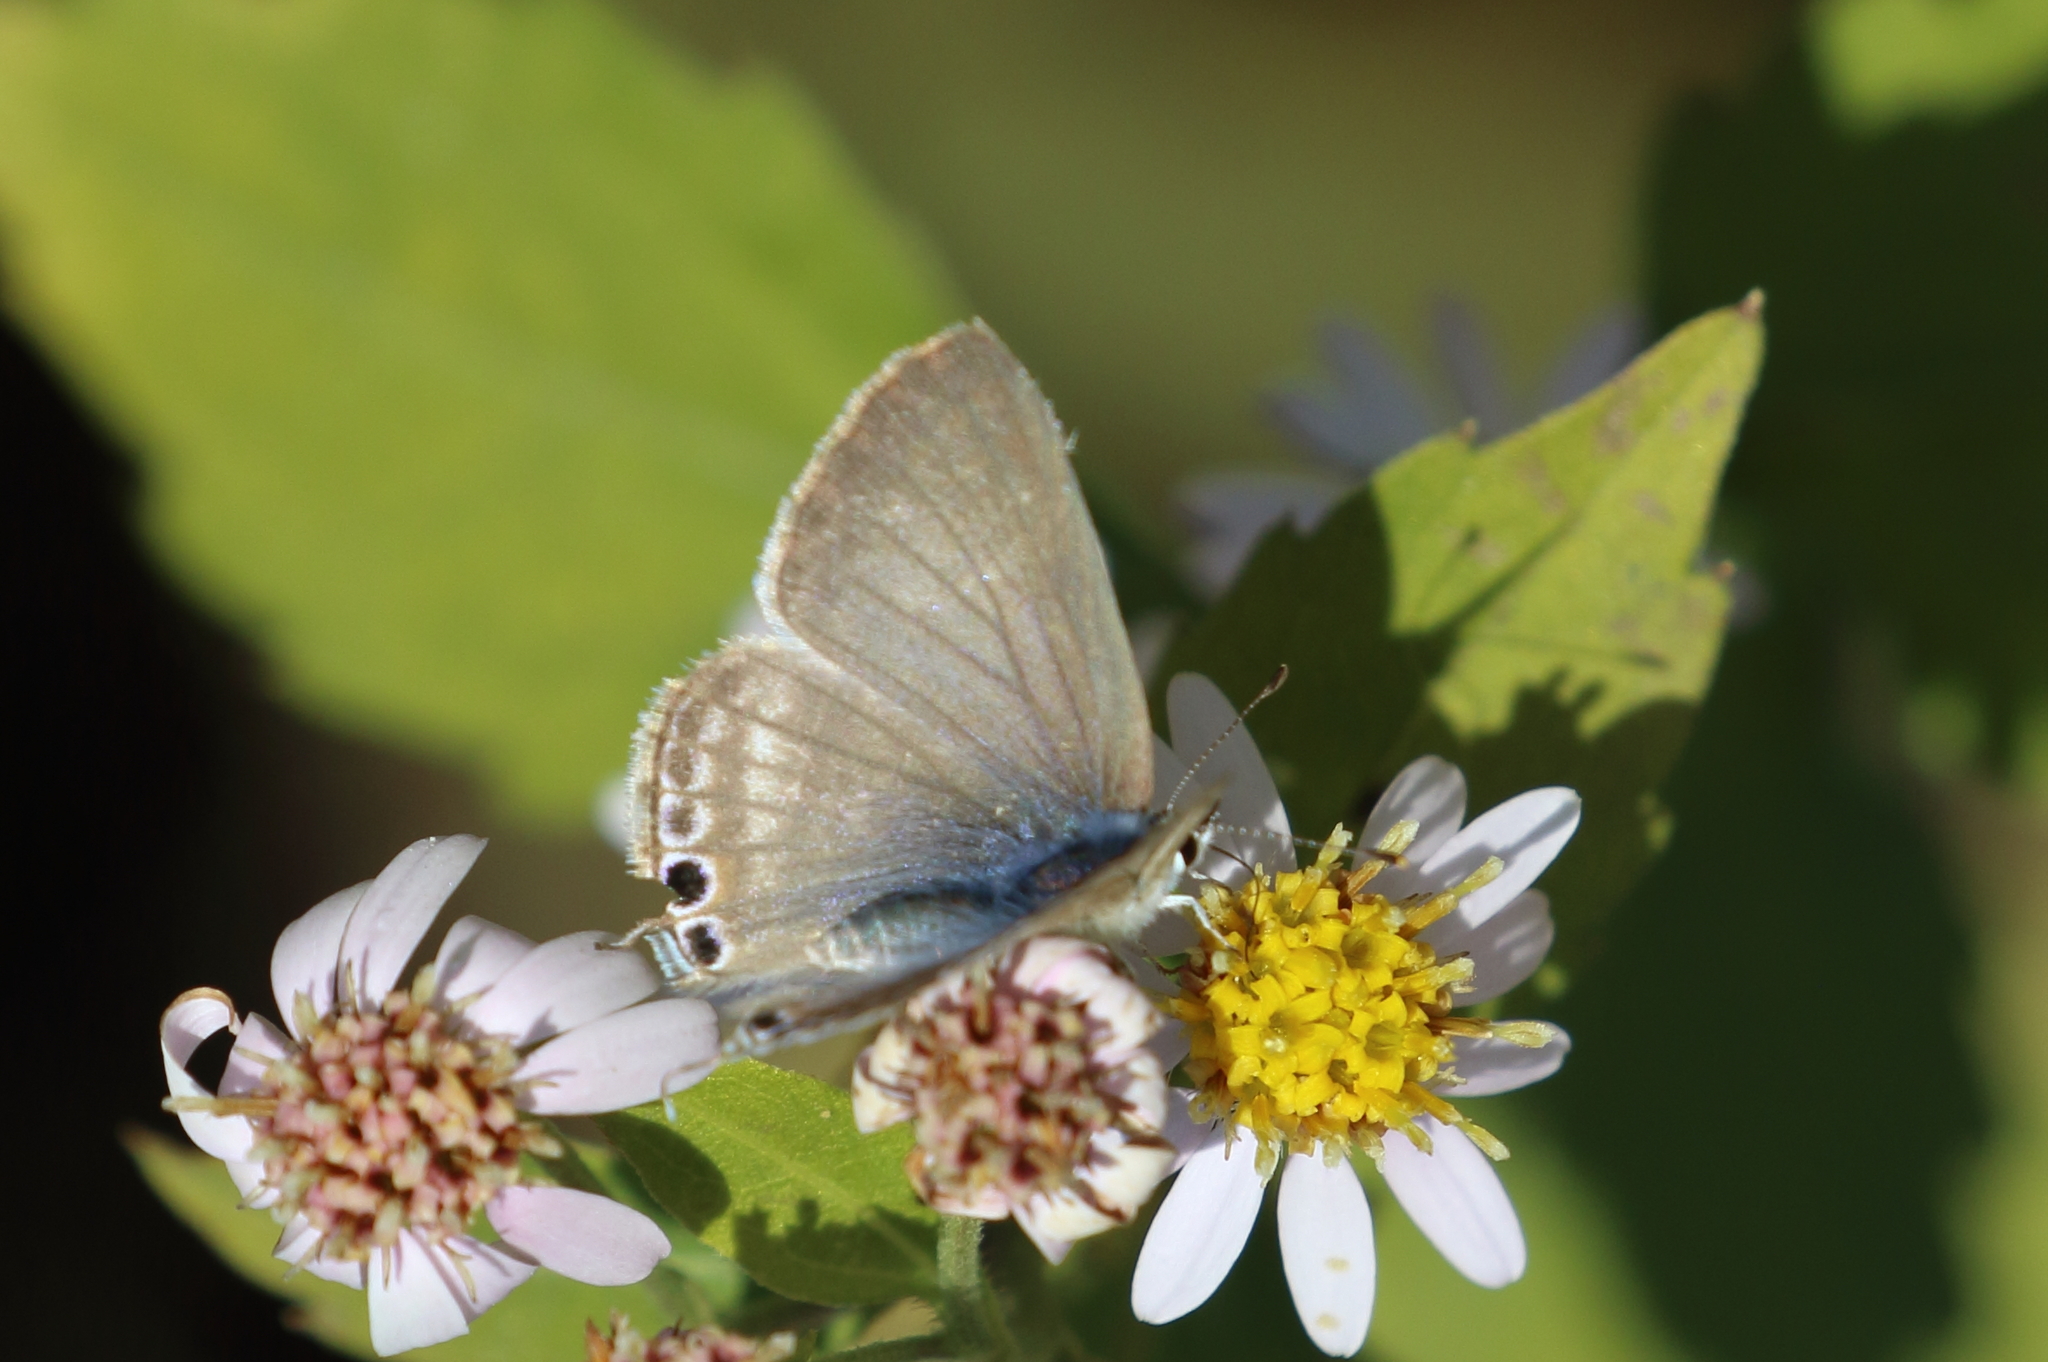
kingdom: Animalia
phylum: Arthropoda
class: Insecta
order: Lepidoptera
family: Lycaenidae
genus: Lampides
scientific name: Lampides boeticus
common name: Long-tailed blue
